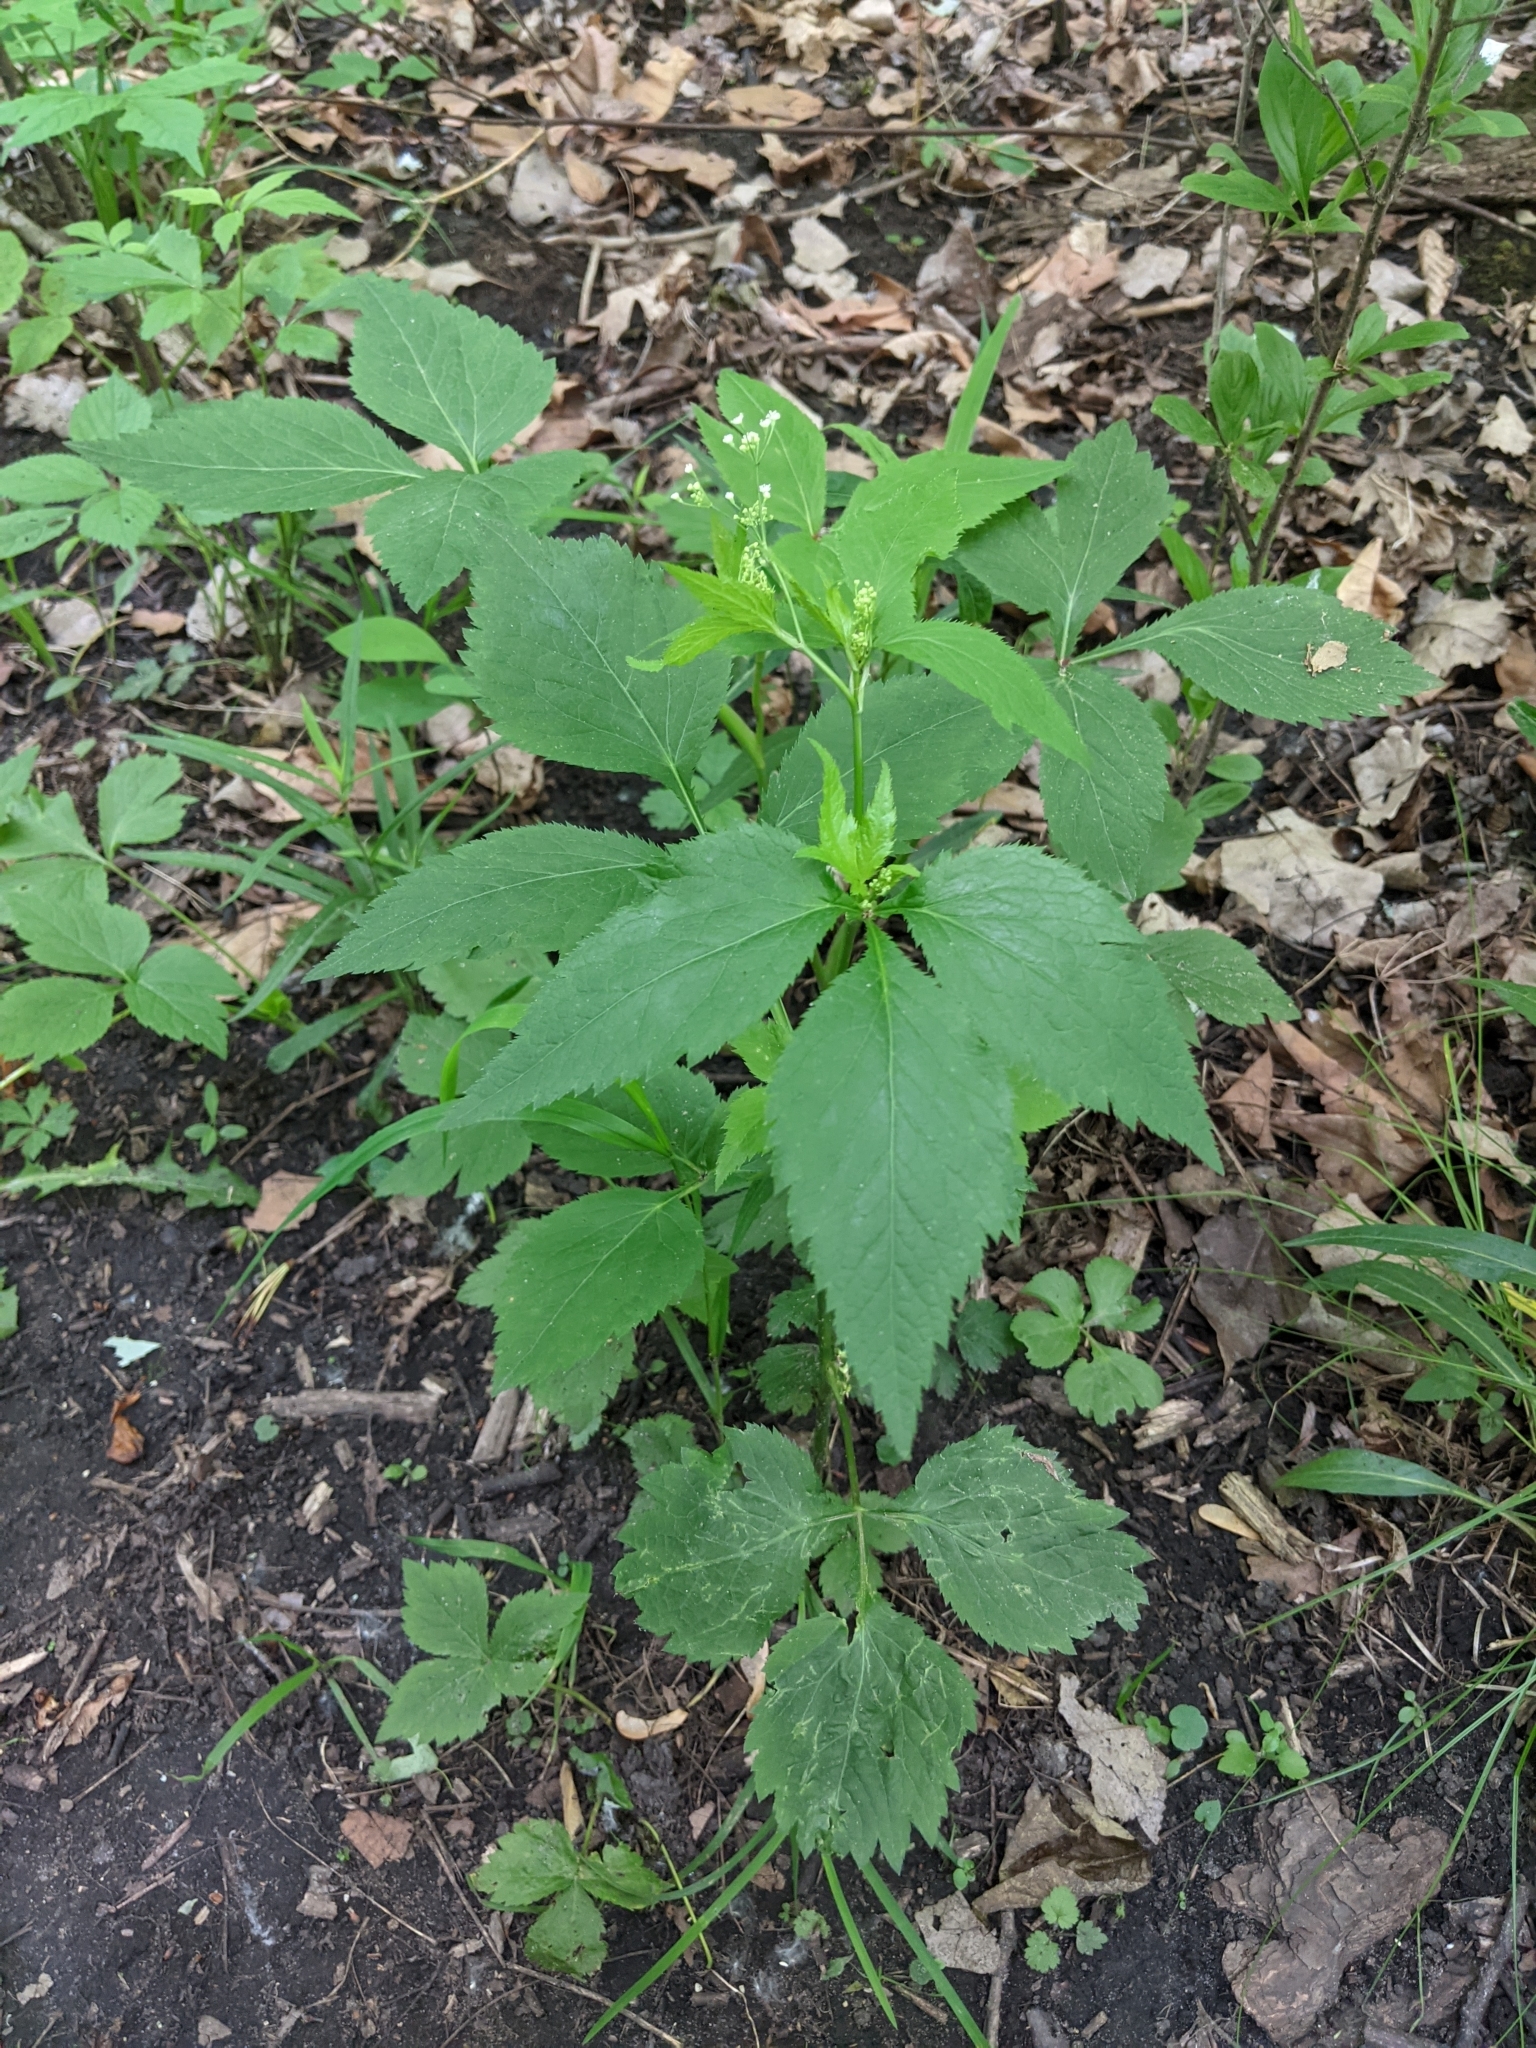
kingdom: Plantae
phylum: Tracheophyta
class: Magnoliopsida
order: Apiales
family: Apiaceae
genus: Cryptotaenia
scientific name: Cryptotaenia canadensis
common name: Honewort
